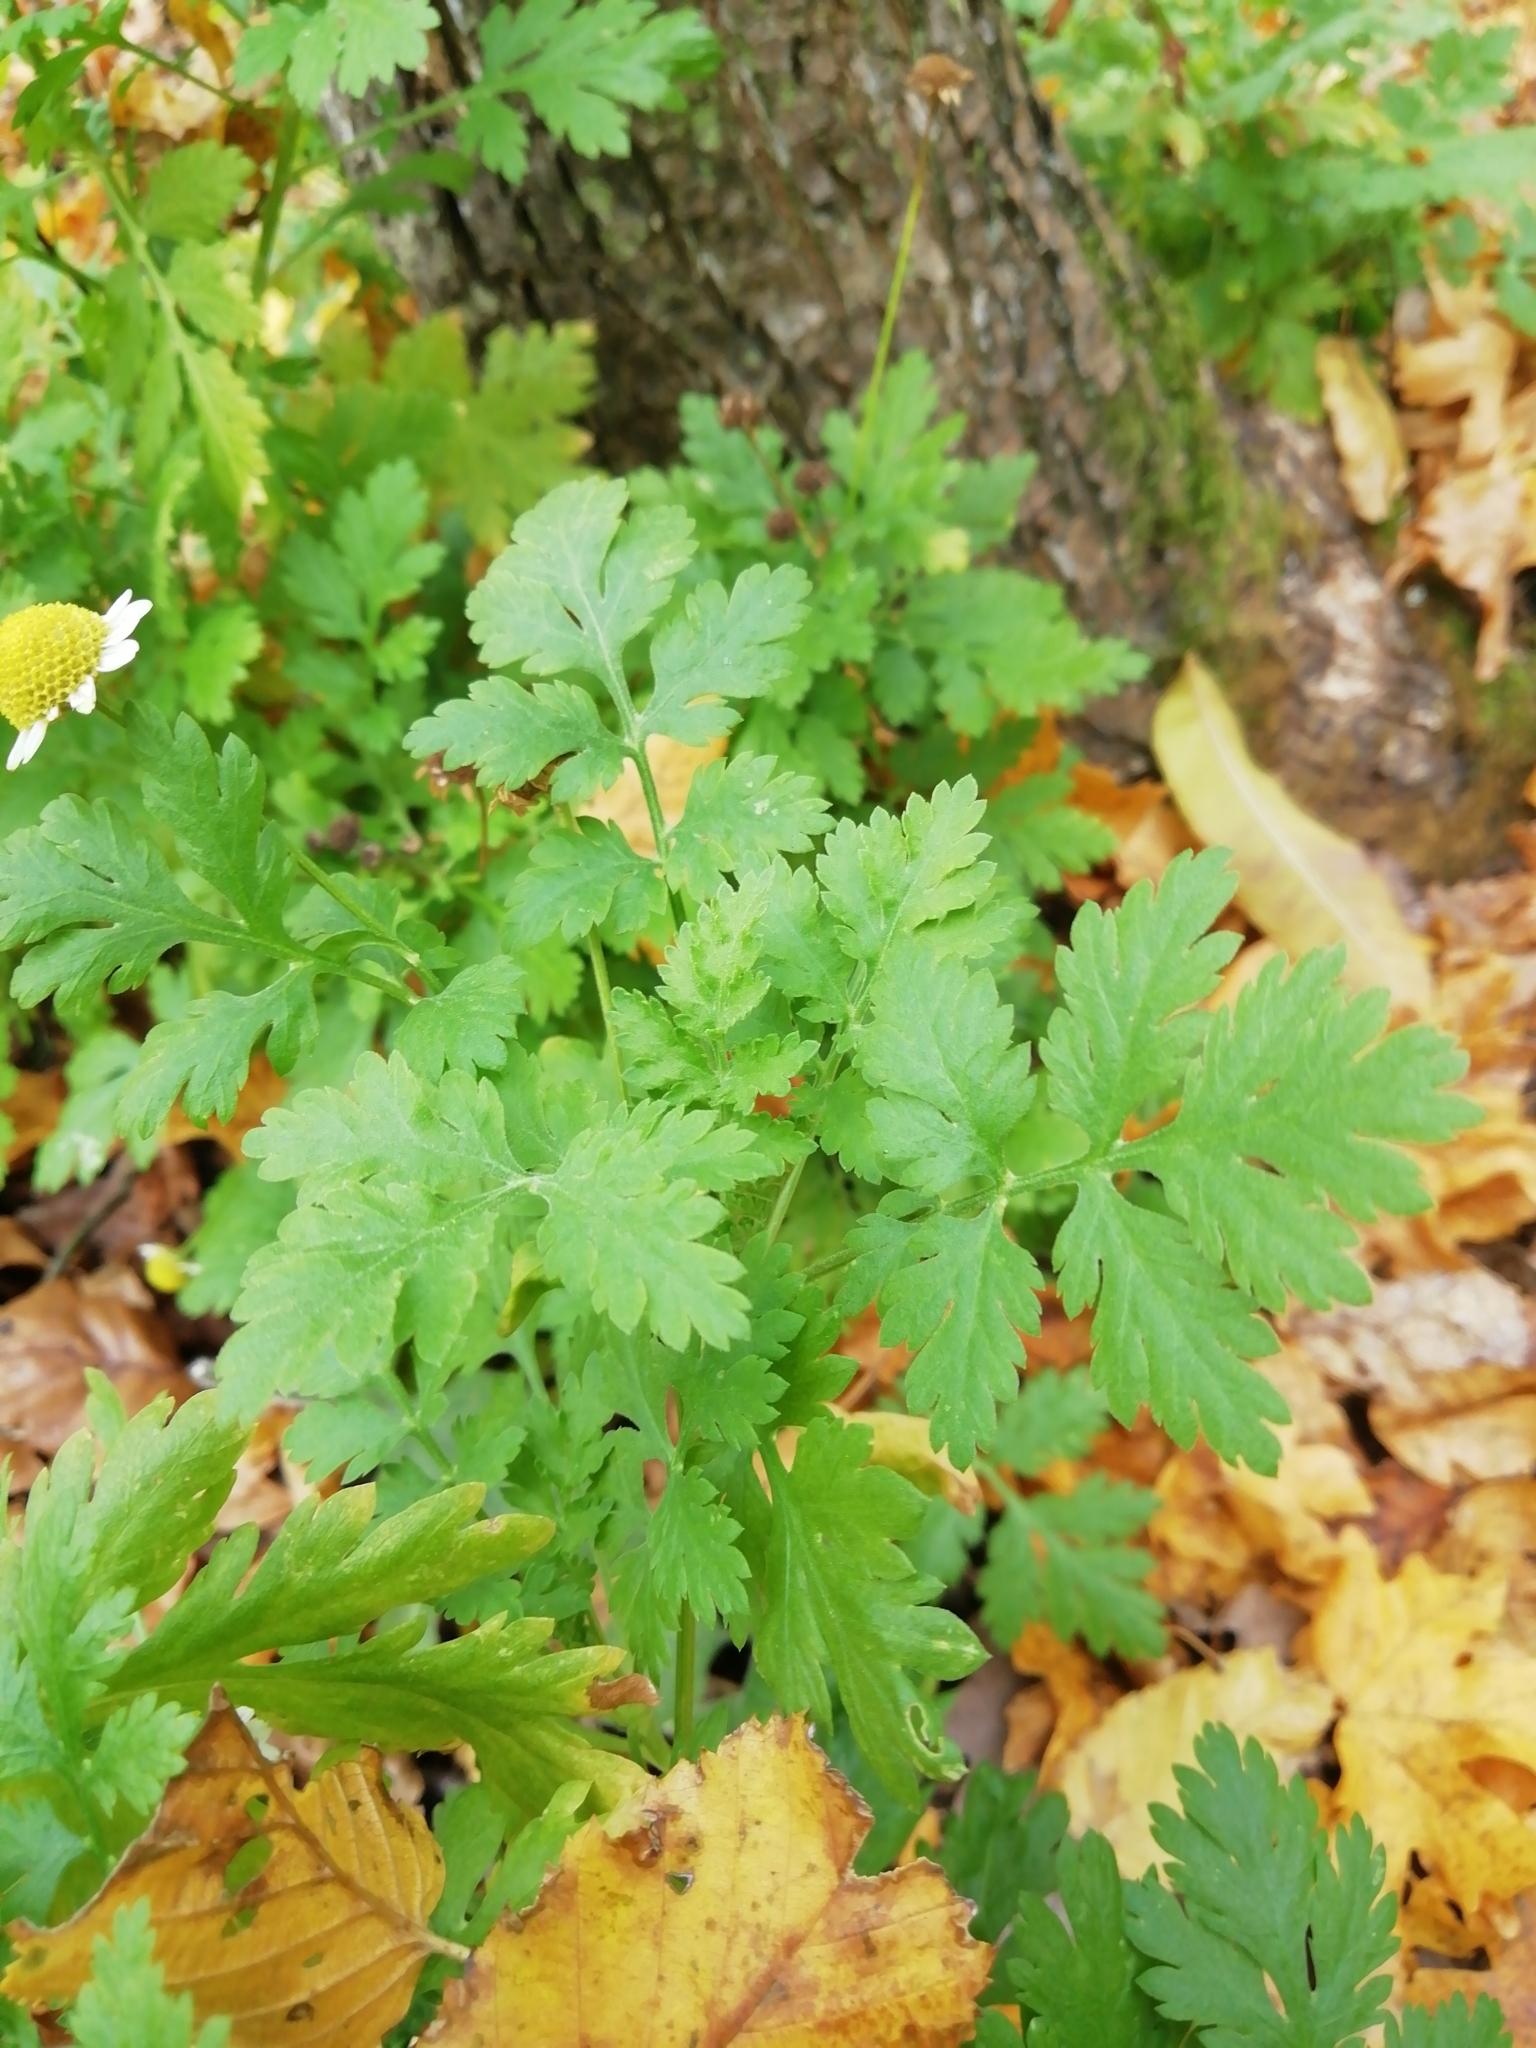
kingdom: Plantae
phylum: Tracheophyta
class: Magnoliopsida
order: Asterales
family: Asteraceae
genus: Tanacetum
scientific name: Tanacetum parthenium
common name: Feverfew
